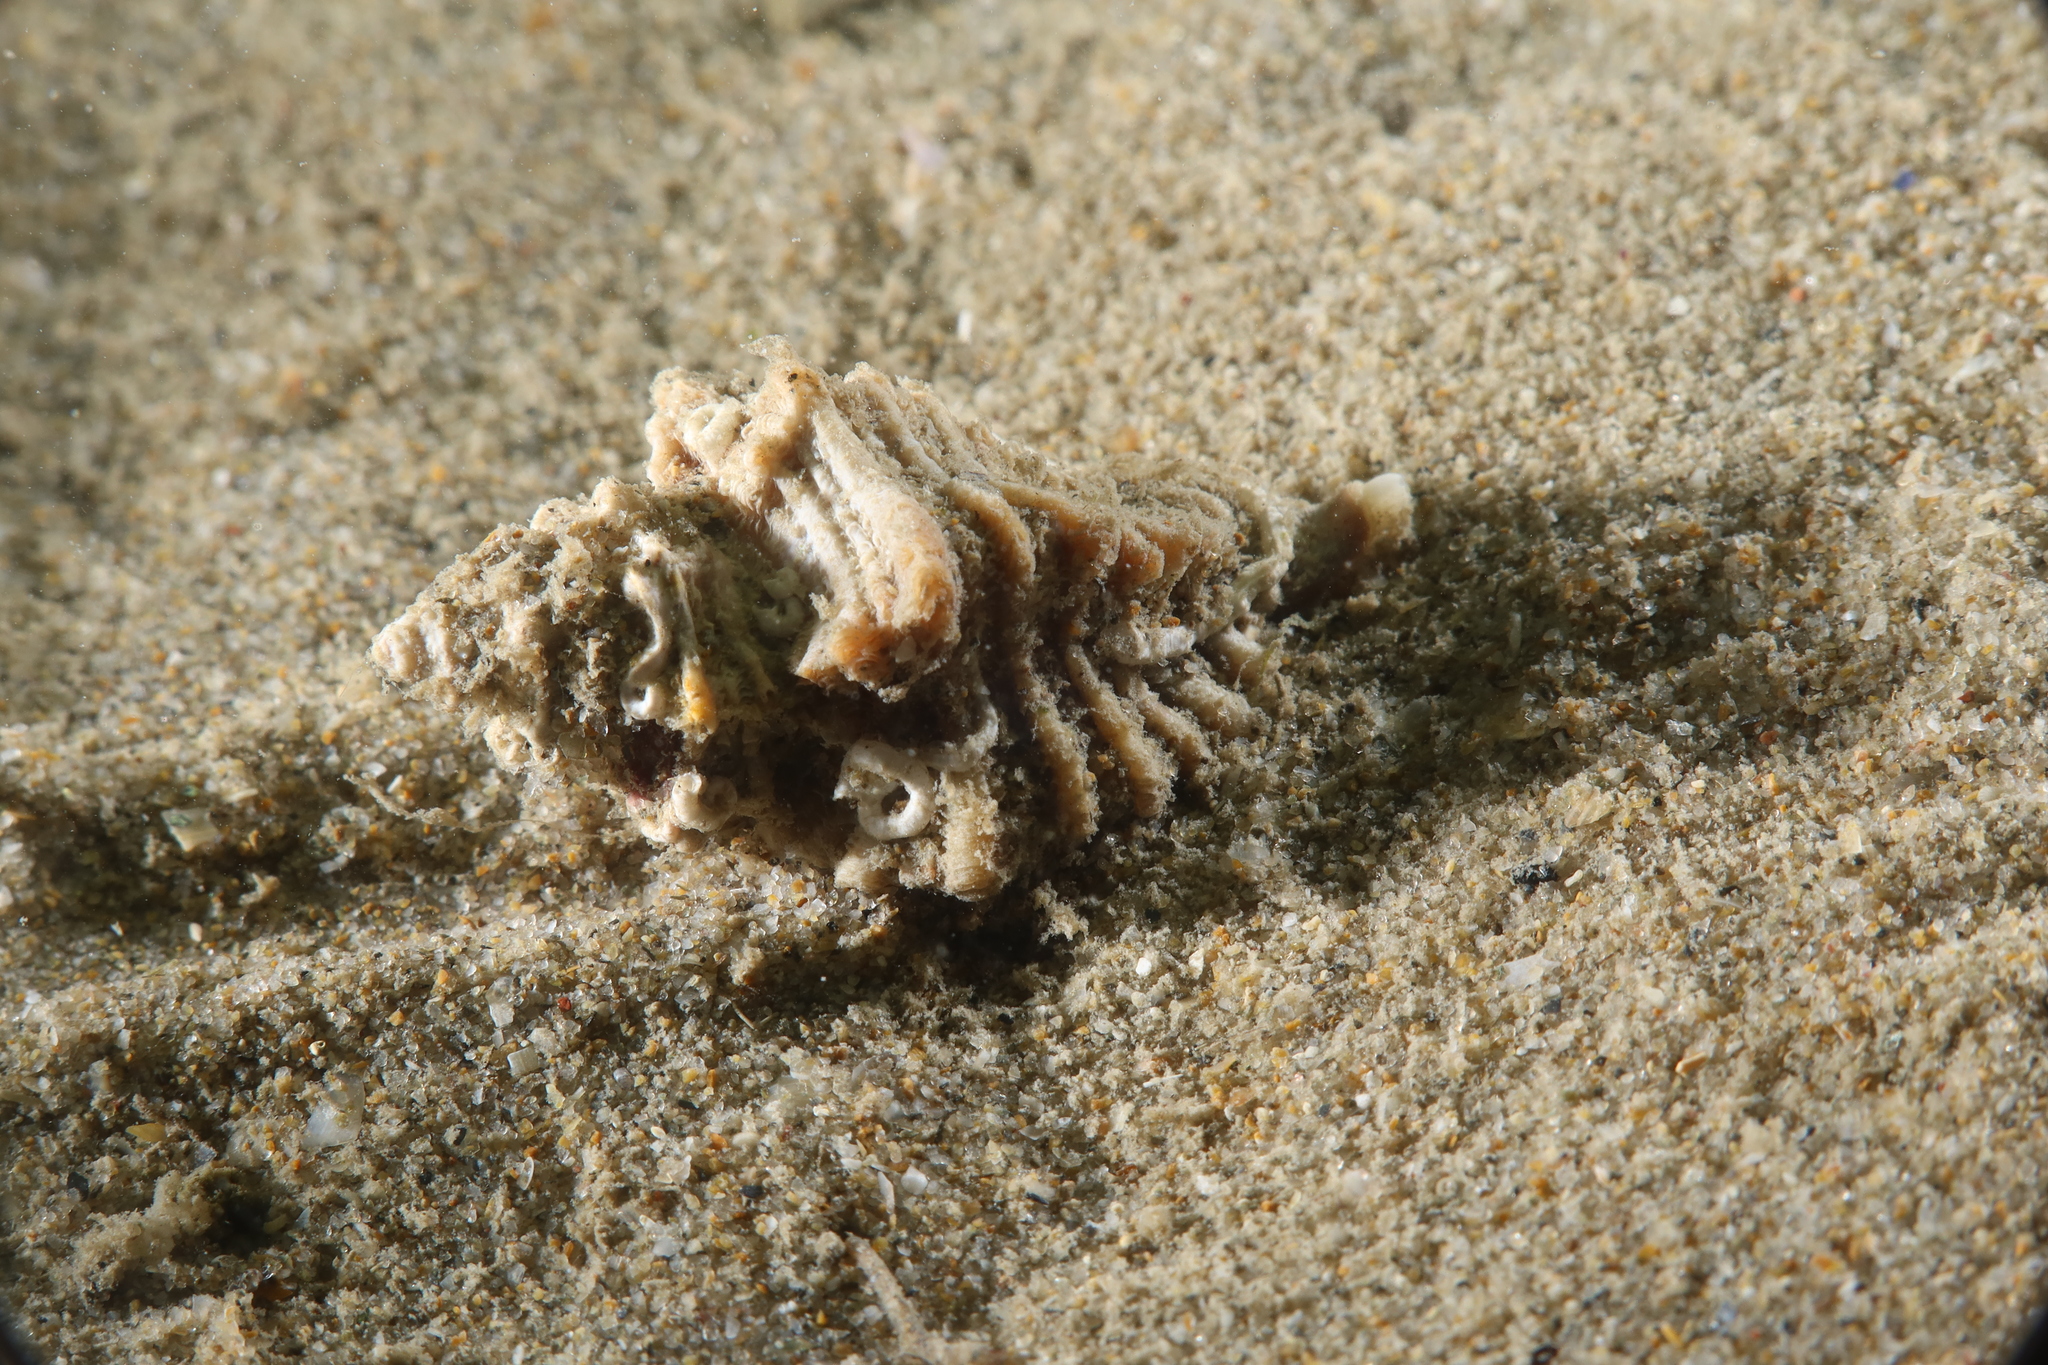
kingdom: Animalia
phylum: Mollusca
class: Gastropoda
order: Neogastropoda
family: Muricidae
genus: Ocenebra
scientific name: Ocenebra erinaceus
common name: European sting winkle
